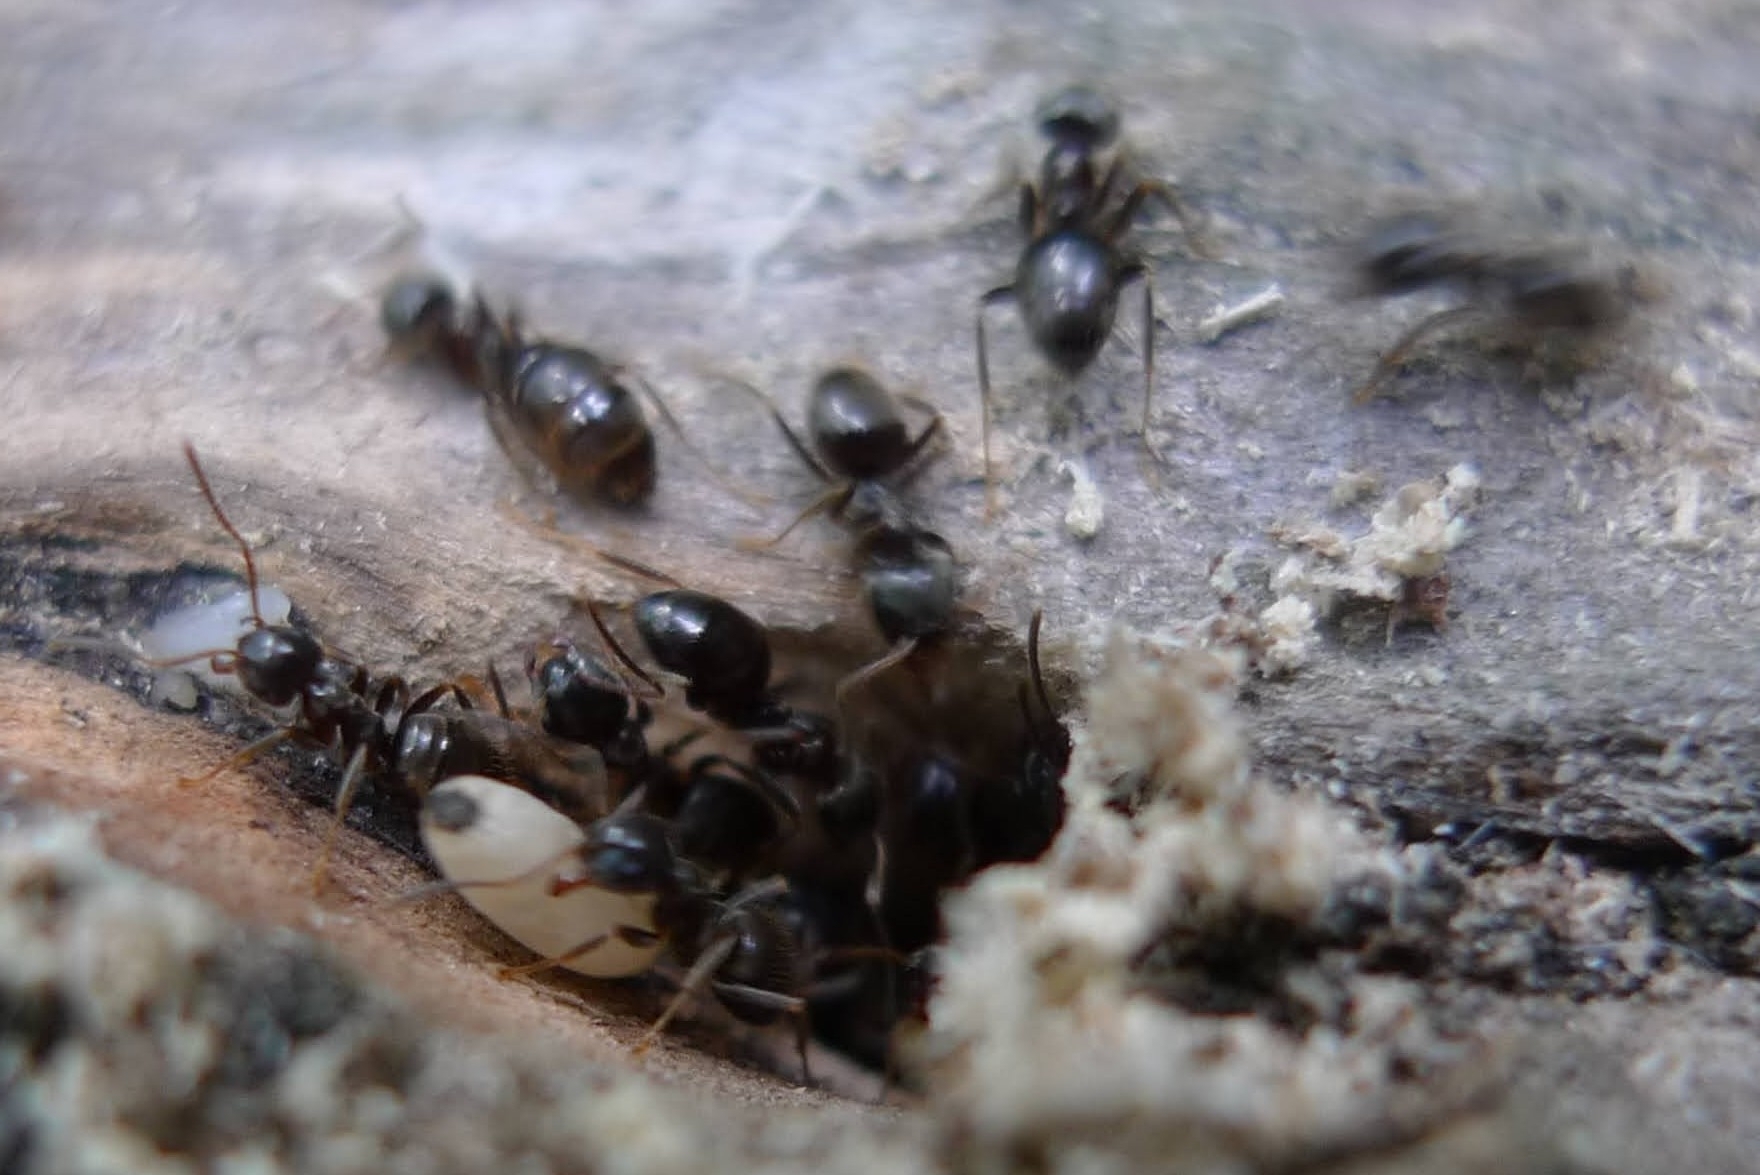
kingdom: Animalia
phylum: Arthropoda
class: Insecta
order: Hymenoptera
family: Formicidae
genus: Lasius
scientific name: Lasius niger
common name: Small black ant
